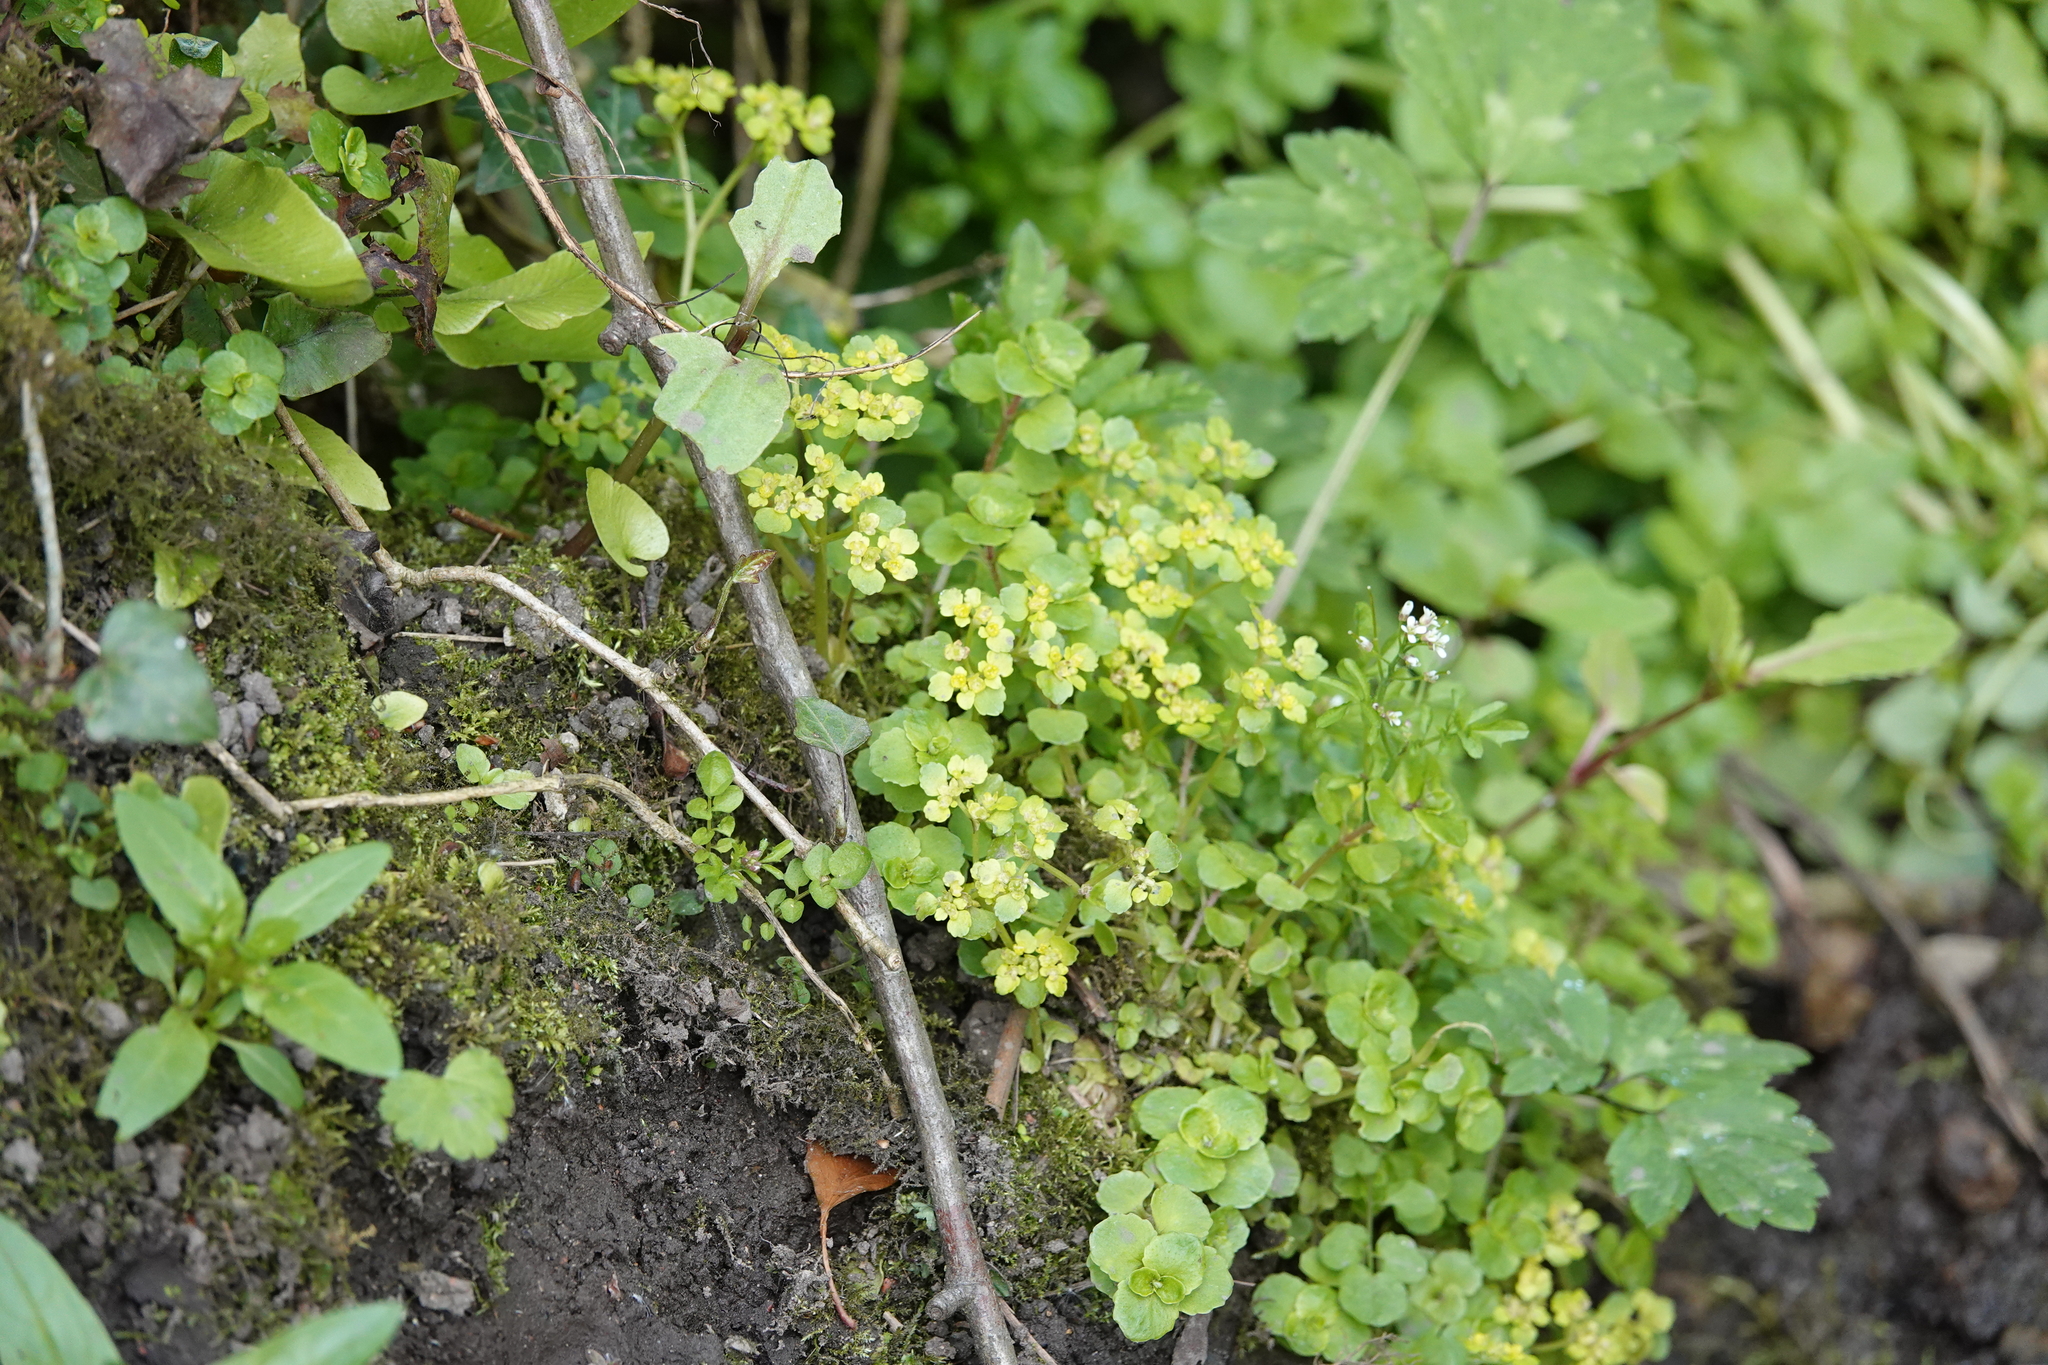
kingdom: Plantae
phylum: Tracheophyta
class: Magnoliopsida
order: Saxifragales
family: Saxifragaceae
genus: Chrysosplenium
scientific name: Chrysosplenium oppositifolium
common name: Opposite-leaved golden-saxifrage
